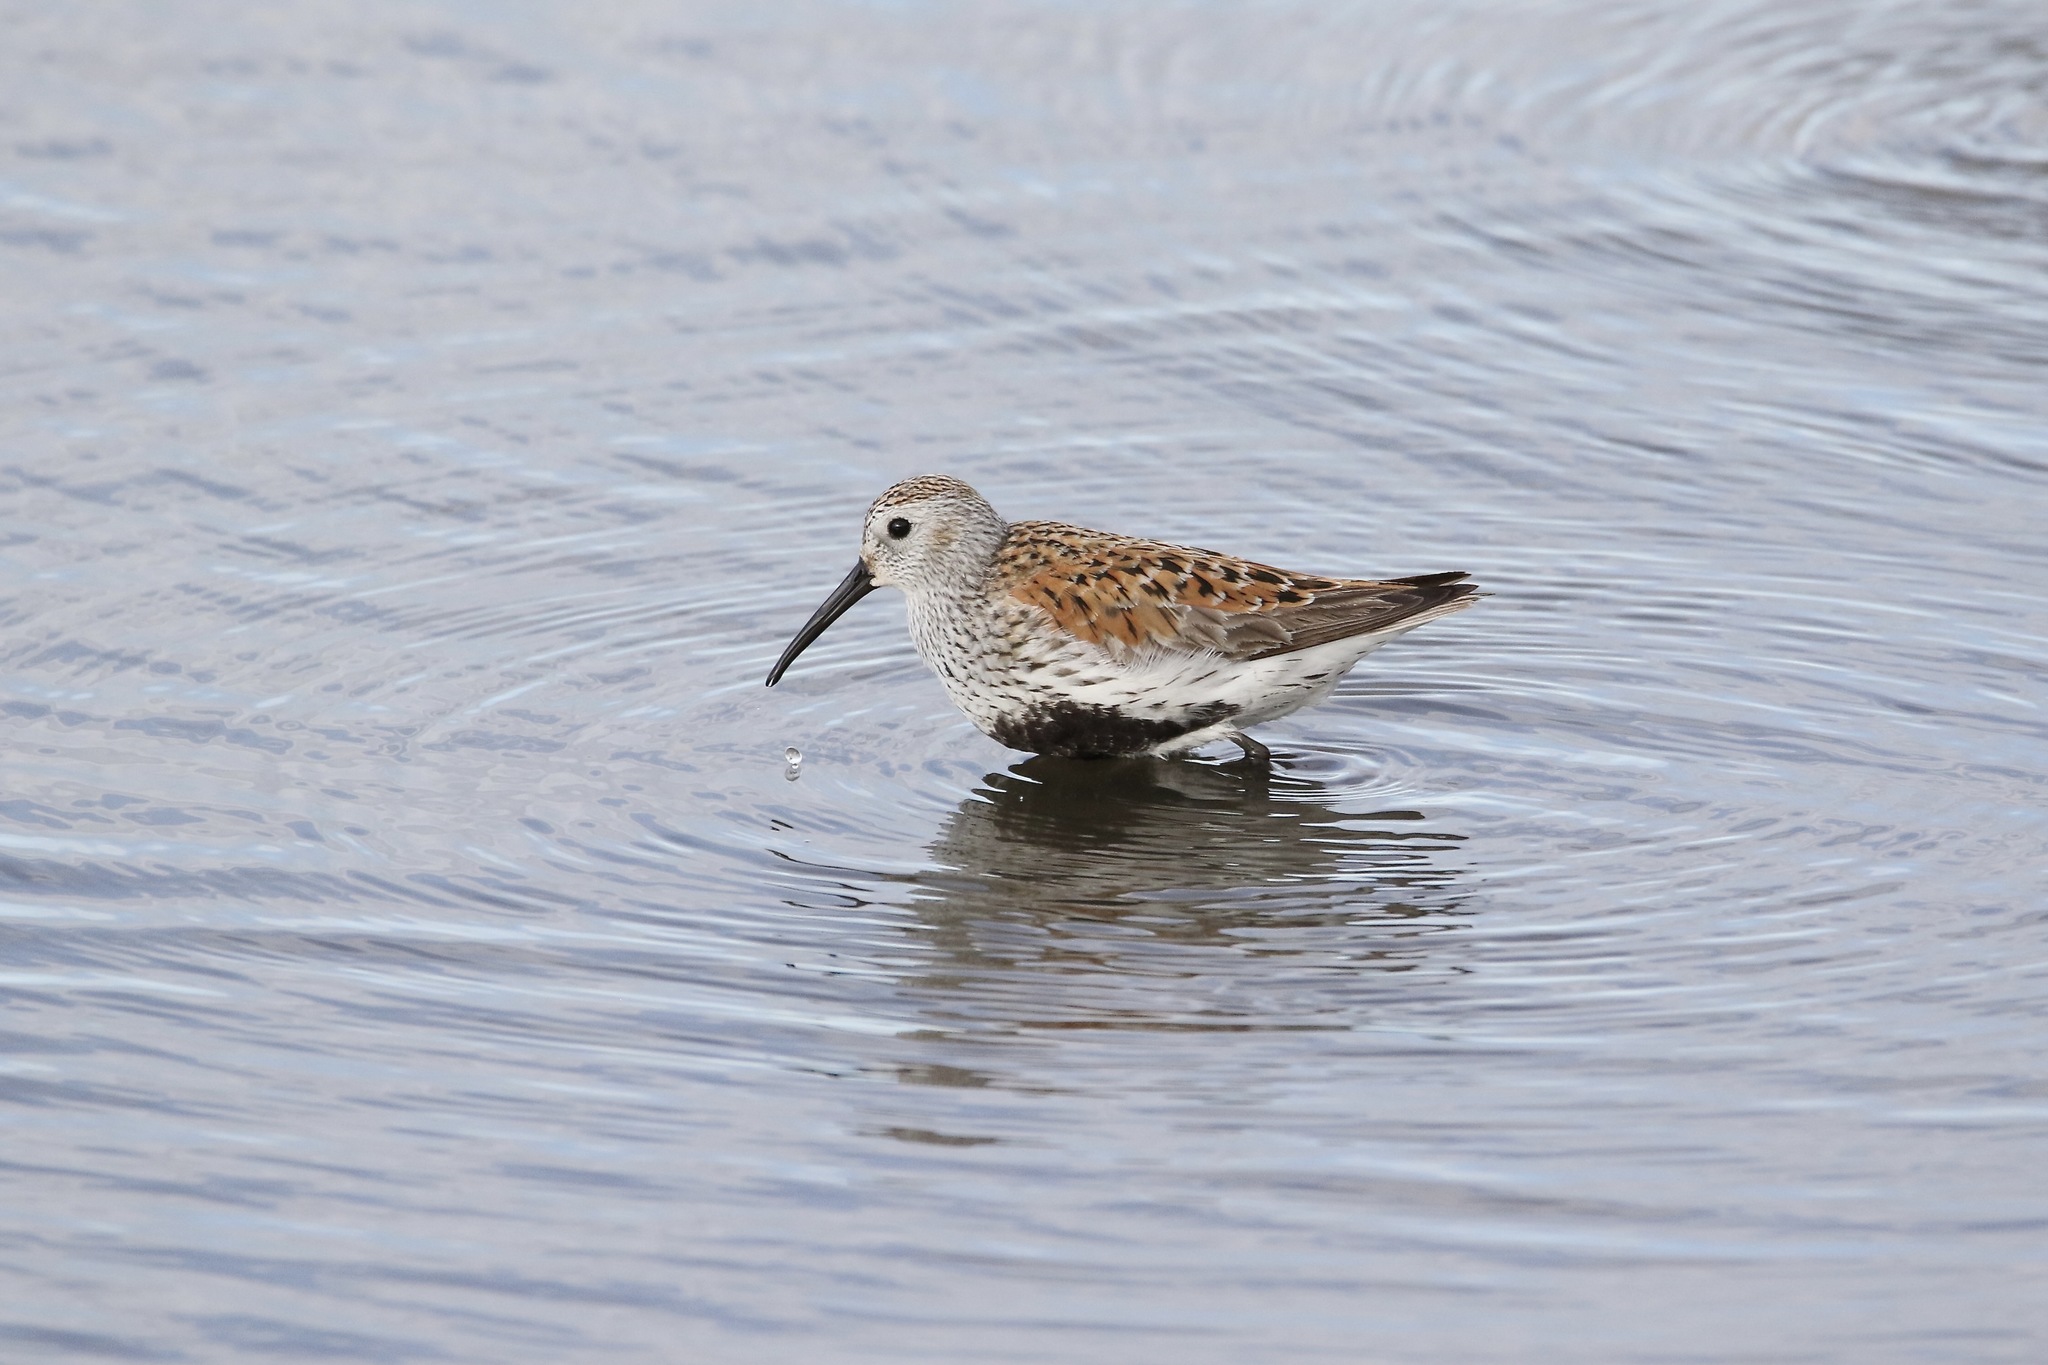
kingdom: Animalia
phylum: Chordata
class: Aves
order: Charadriiformes
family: Scolopacidae
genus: Calidris
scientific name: Calidris alpina
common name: Dunlin
